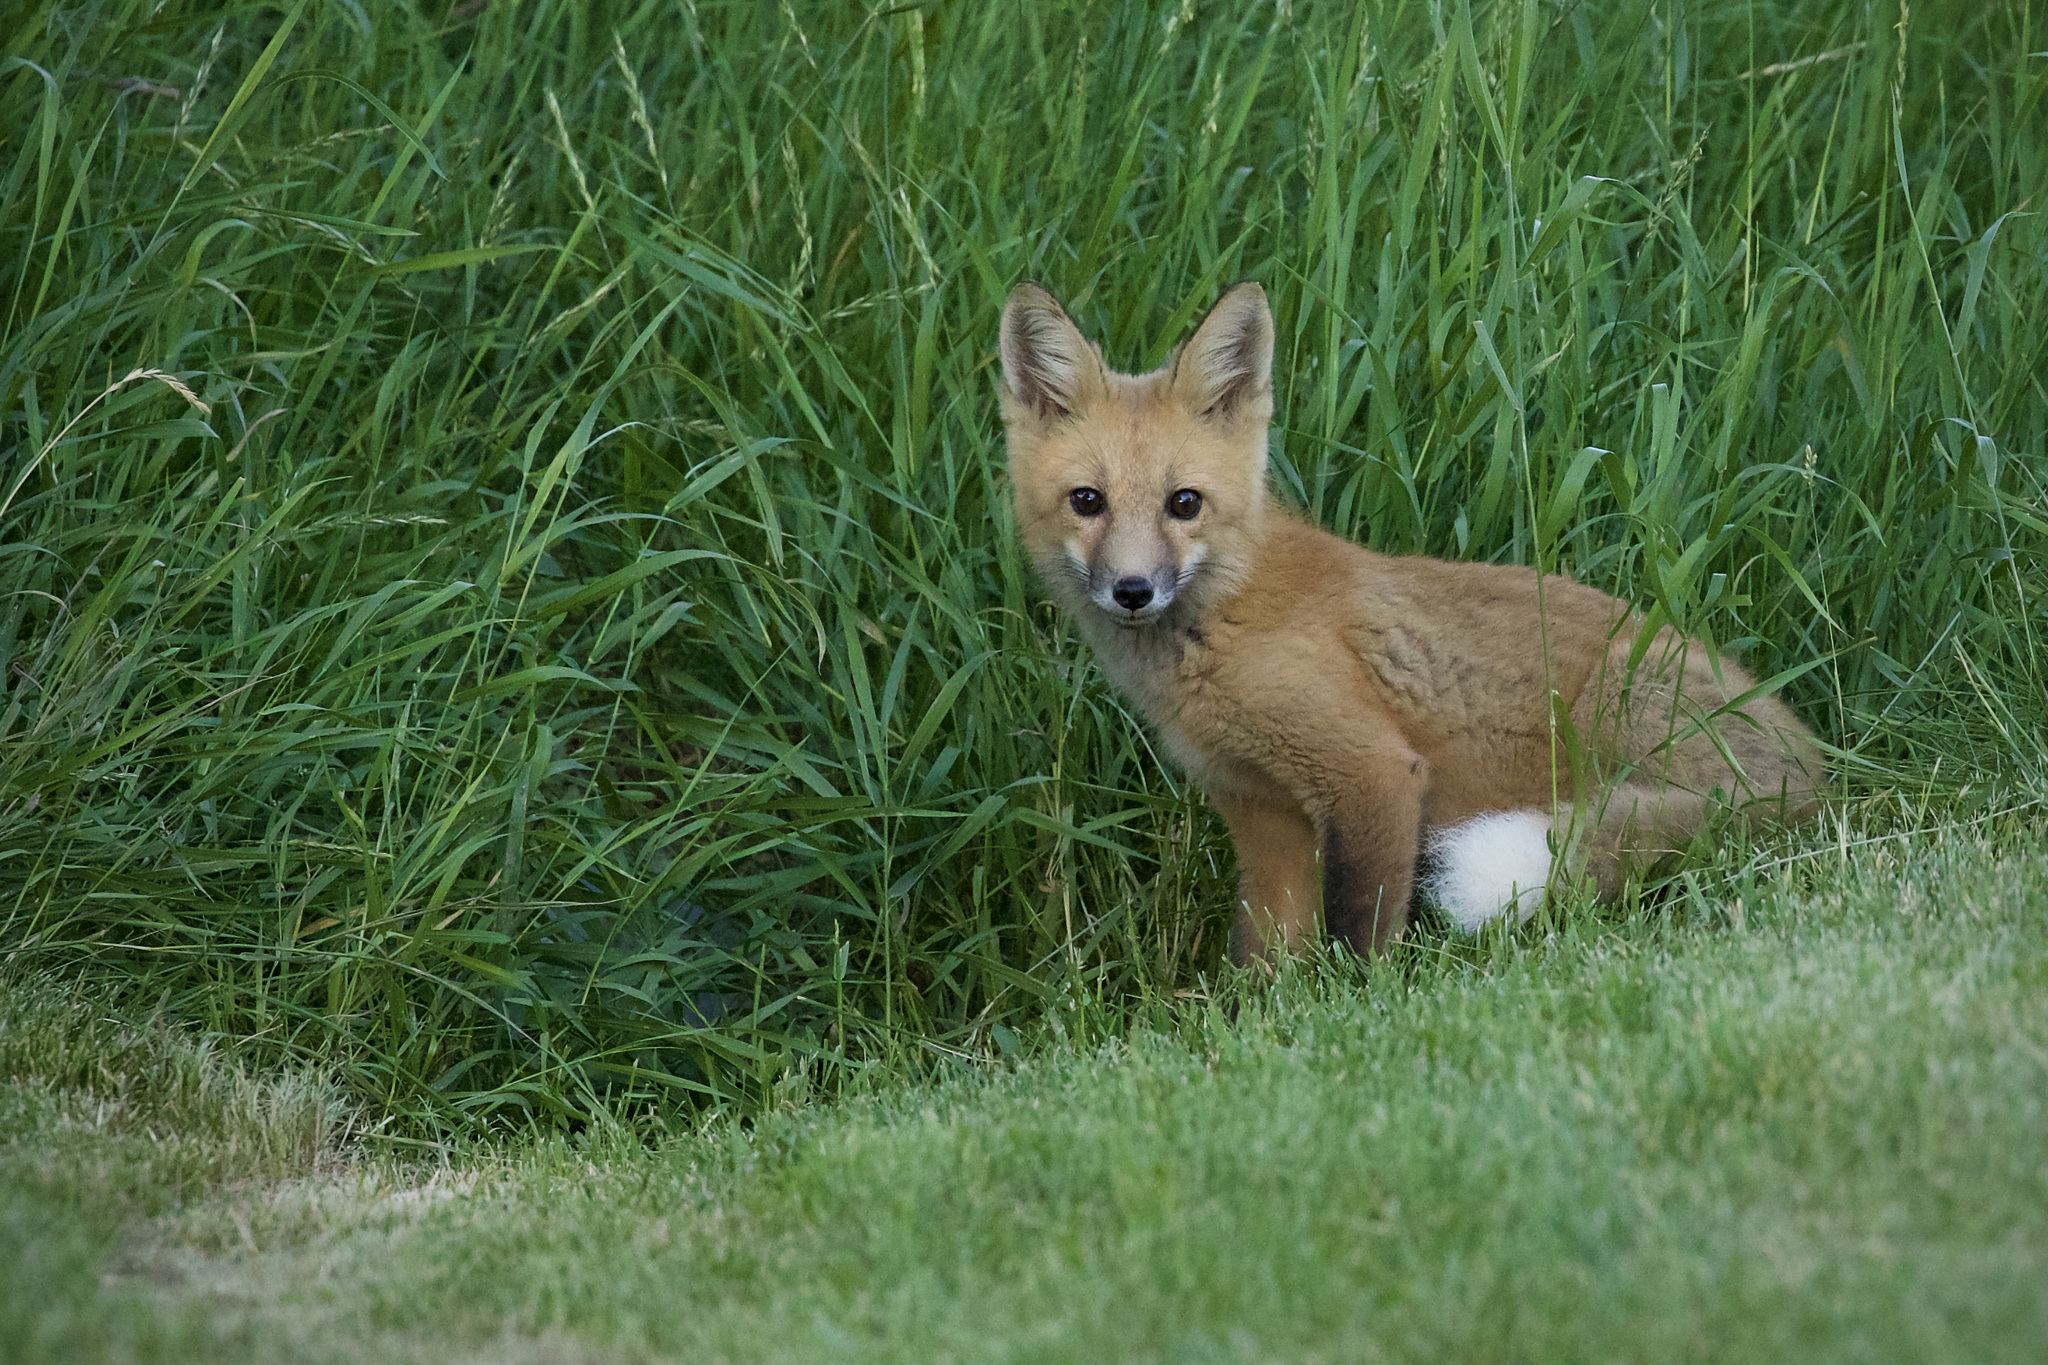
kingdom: Animalia
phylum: Chordata
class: Mammalia
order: Carnivora
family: Canidae
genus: Vulpes
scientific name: Vulpes vulpes
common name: Red fox
